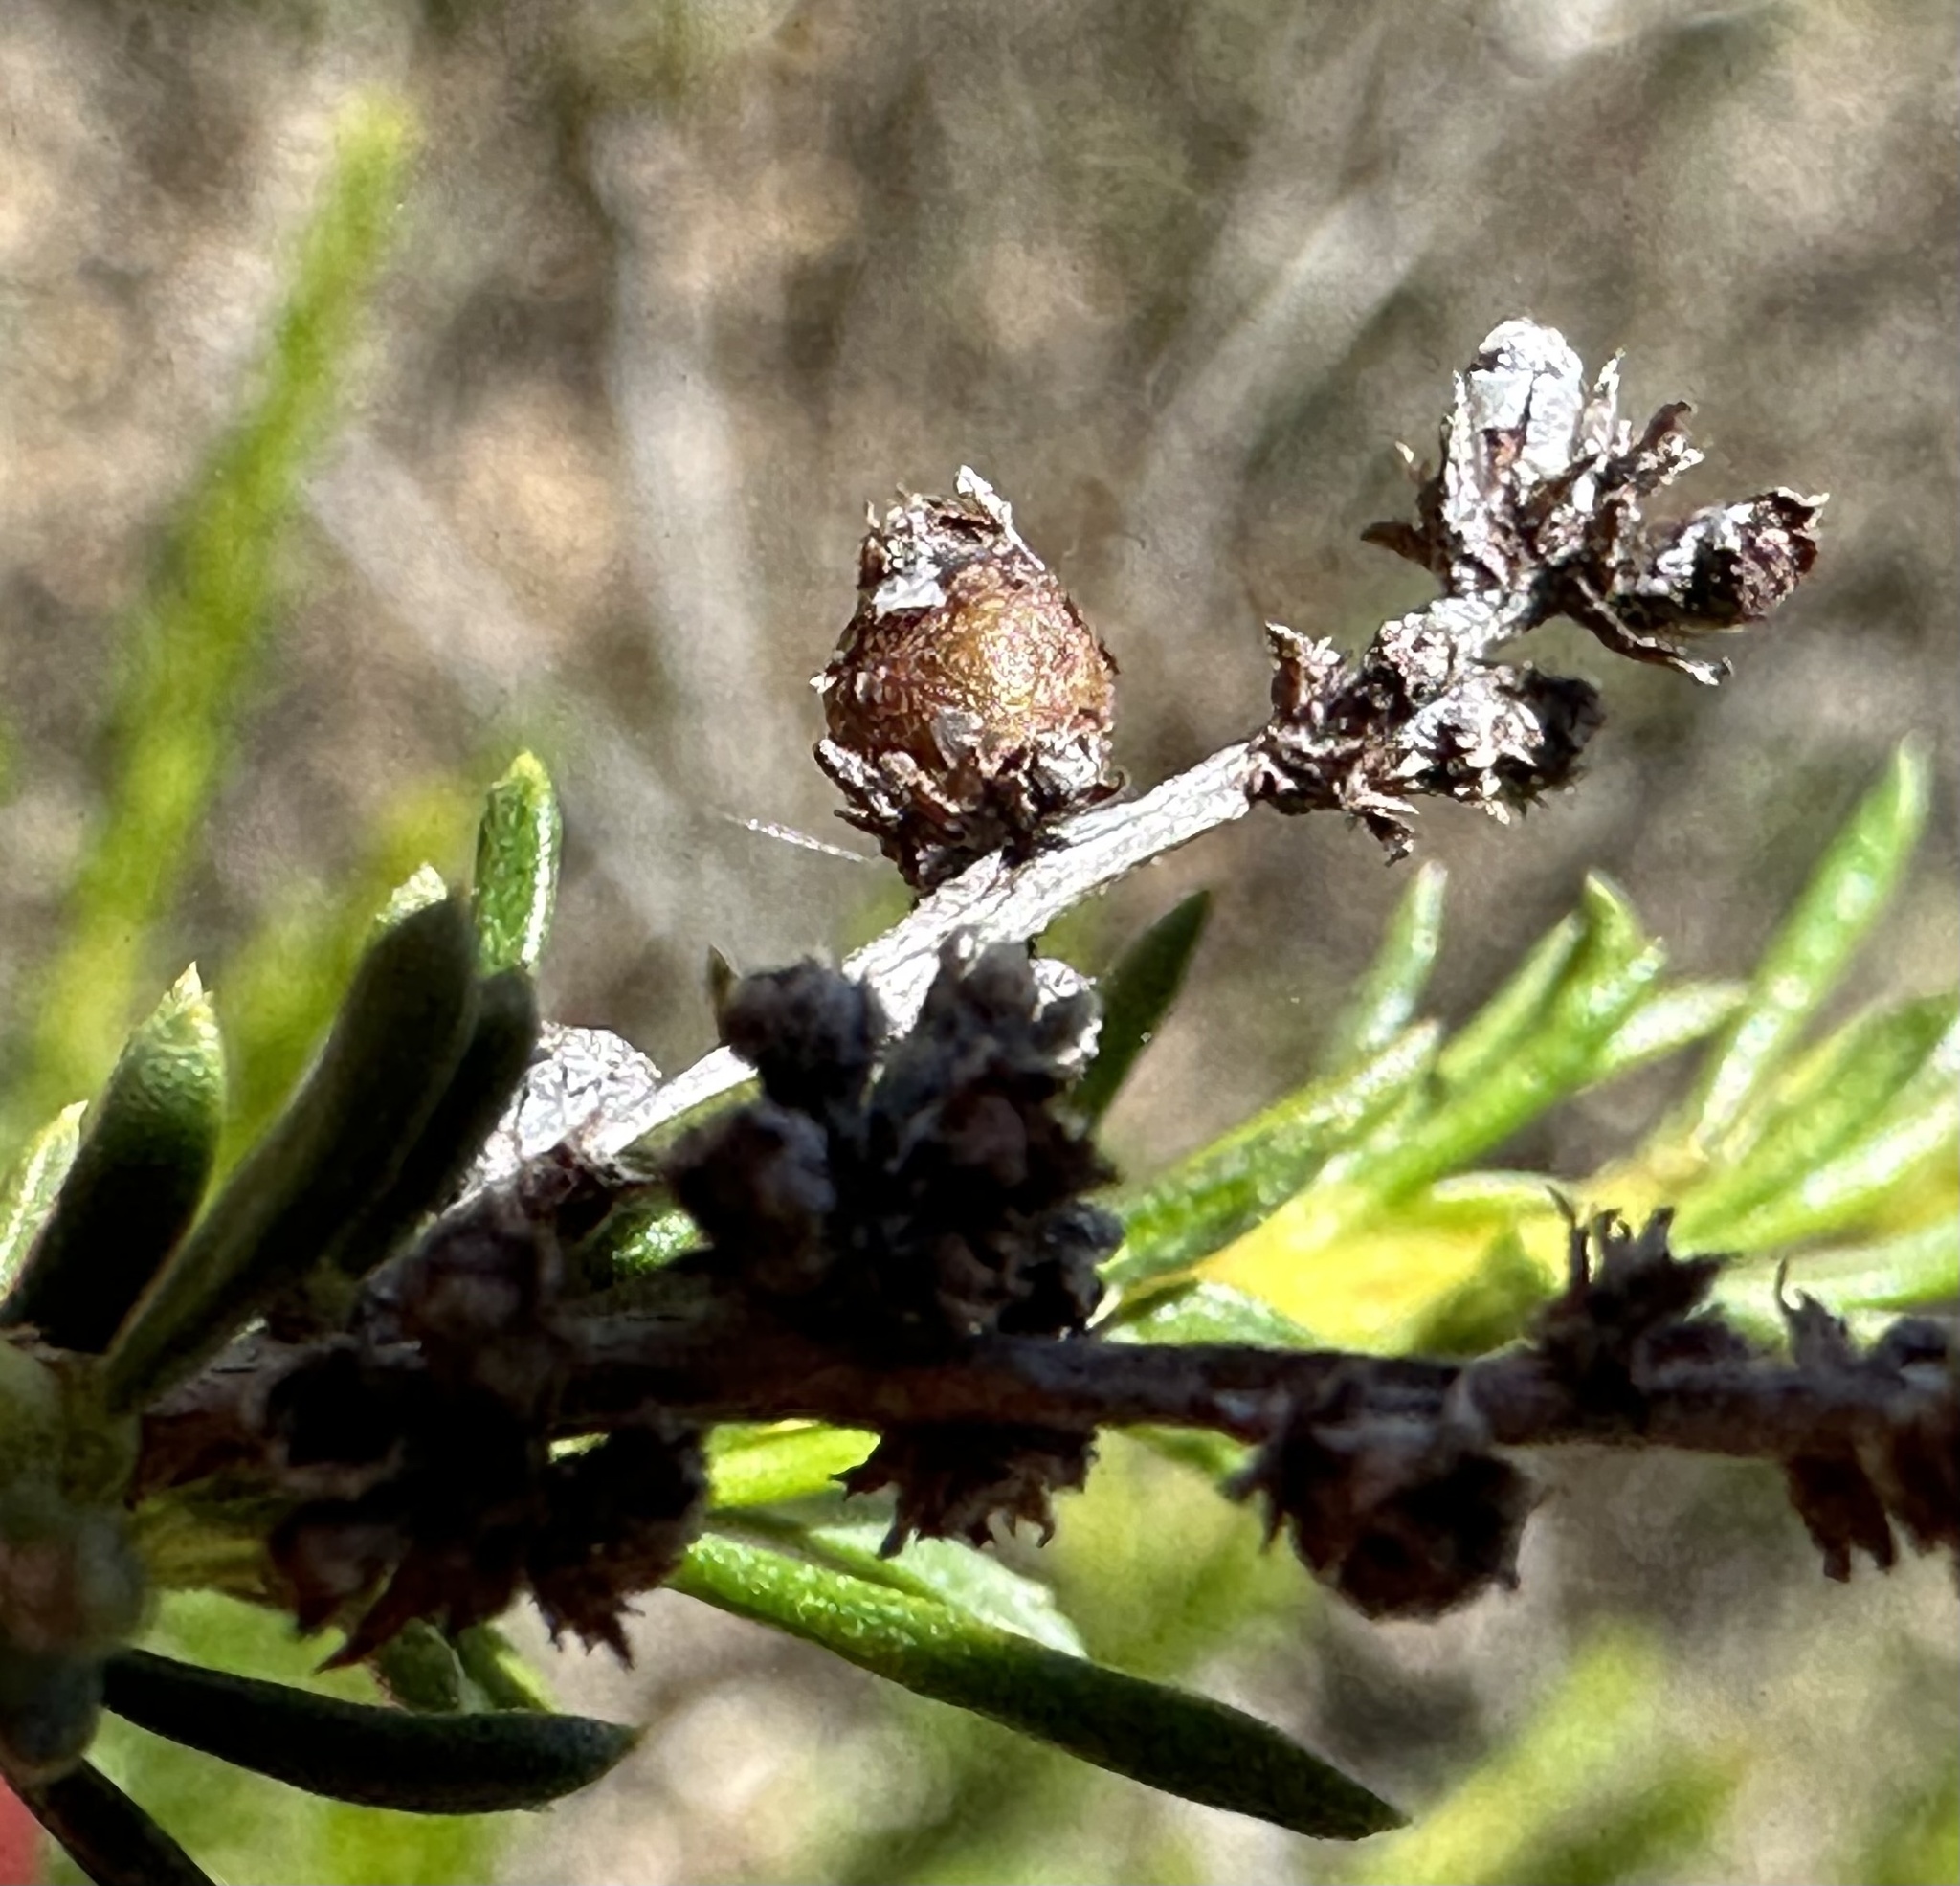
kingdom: Animalia
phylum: Arthropoda
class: Insecta
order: Diptera
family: Cecidomyiidae
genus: Asphondylia
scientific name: Asphondylia adenostoma
